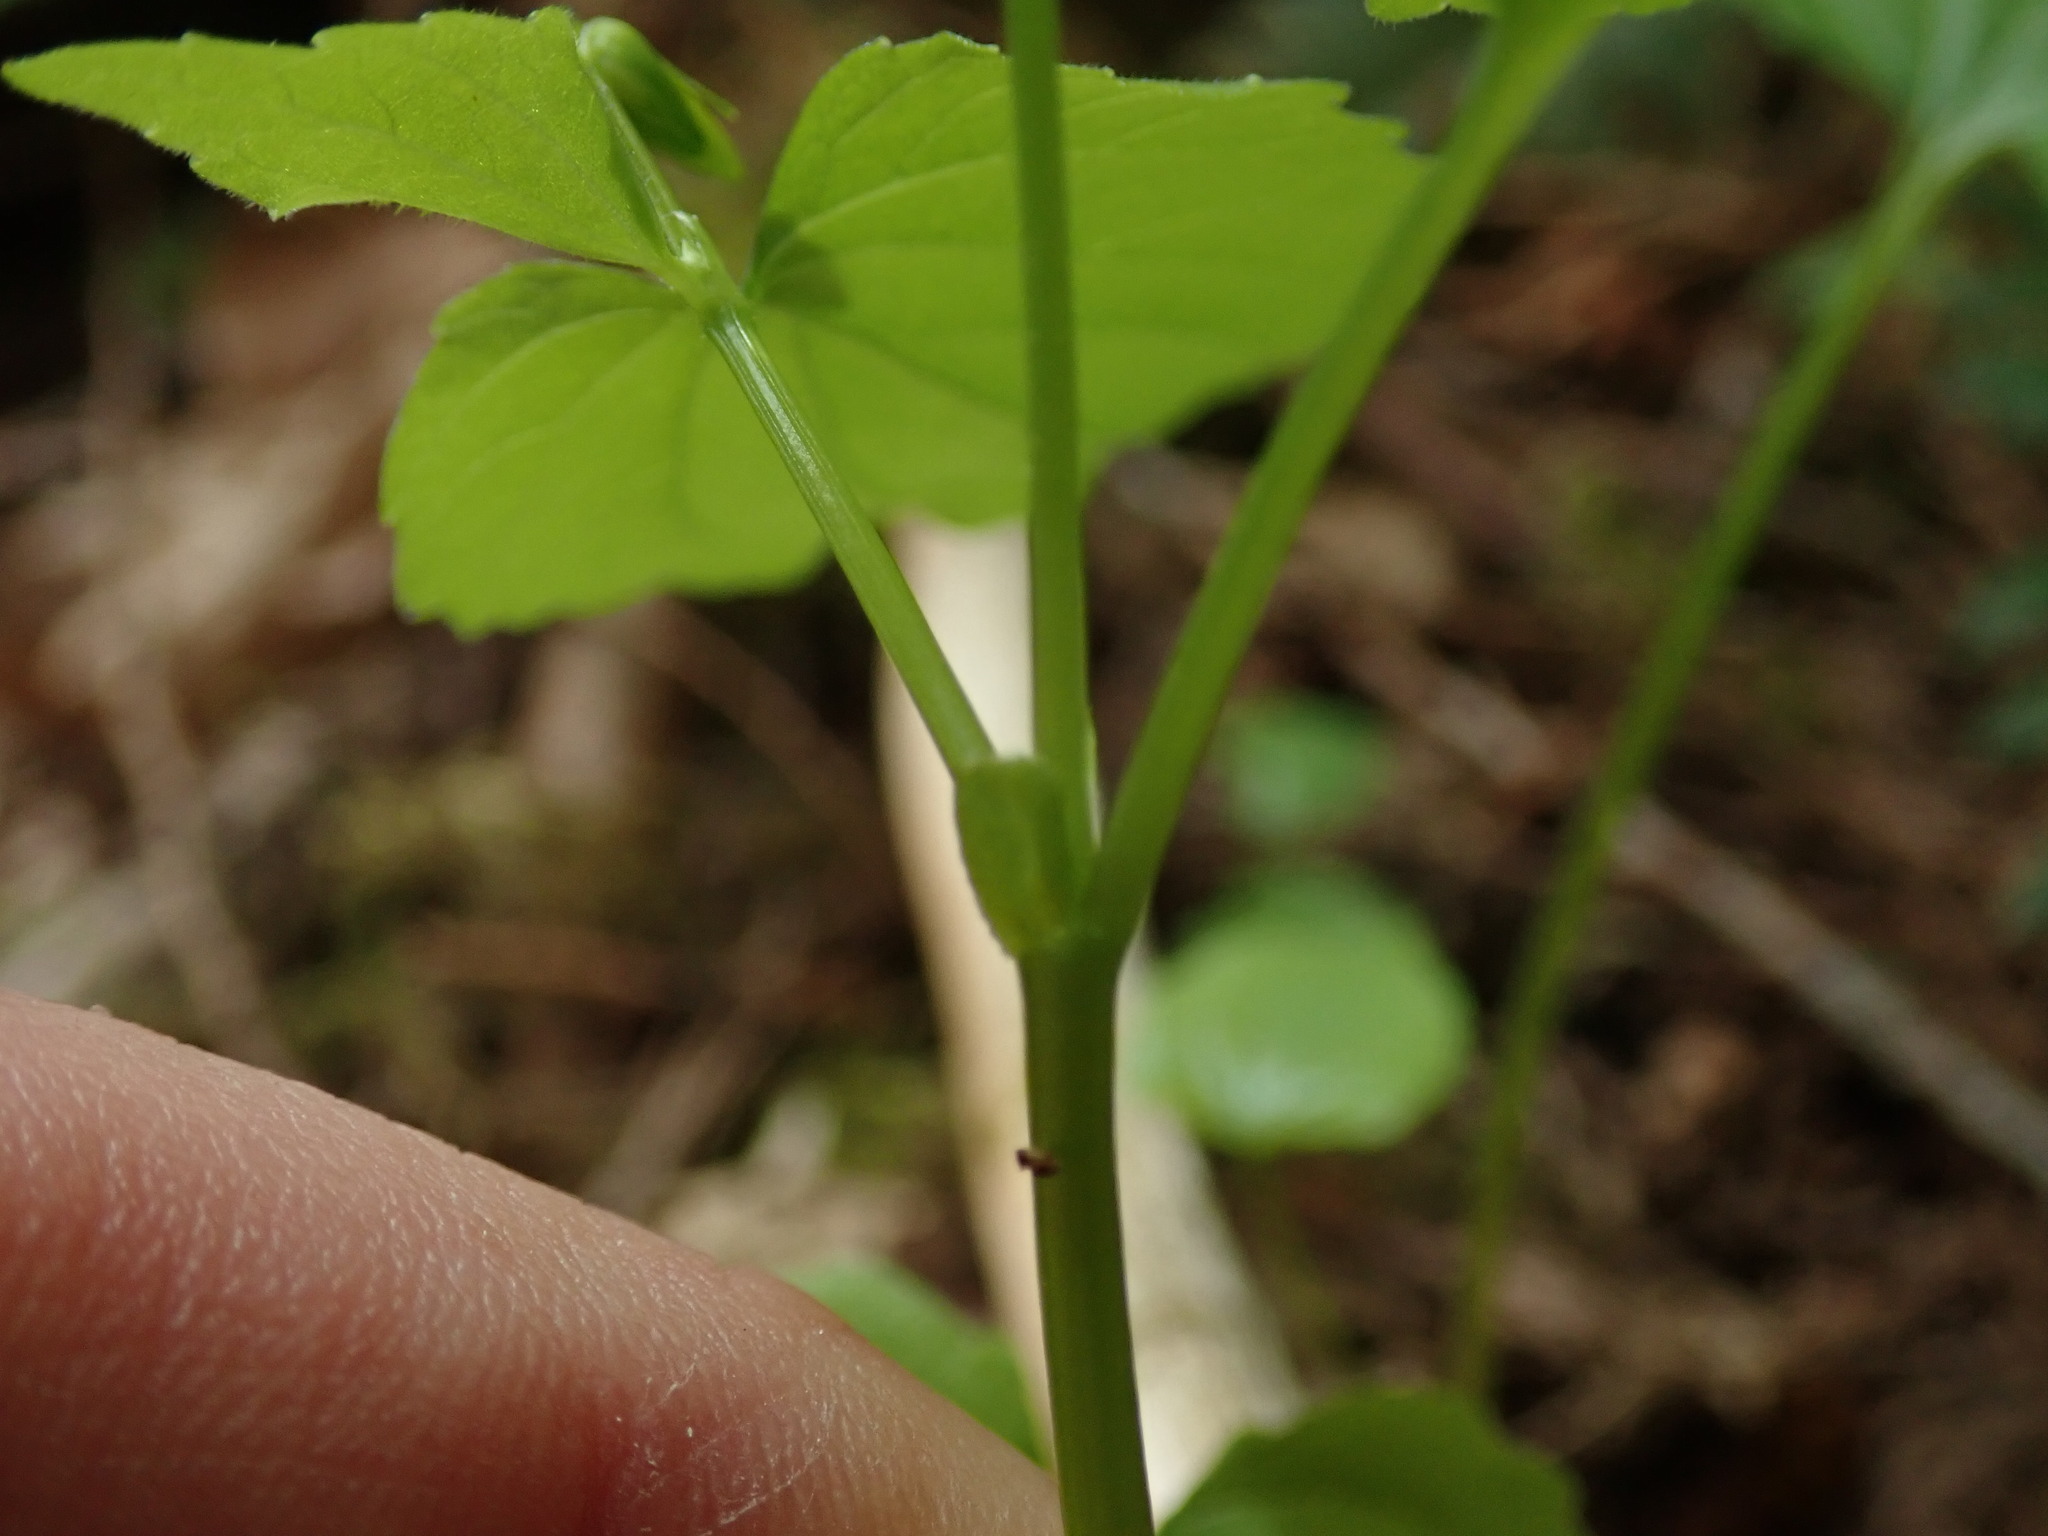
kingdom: Plantae
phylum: Tracheophyta
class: Magnoliopsida
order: Malpighiales
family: Violaceae
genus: Viola
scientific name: Viola glabella
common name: Stream violet
